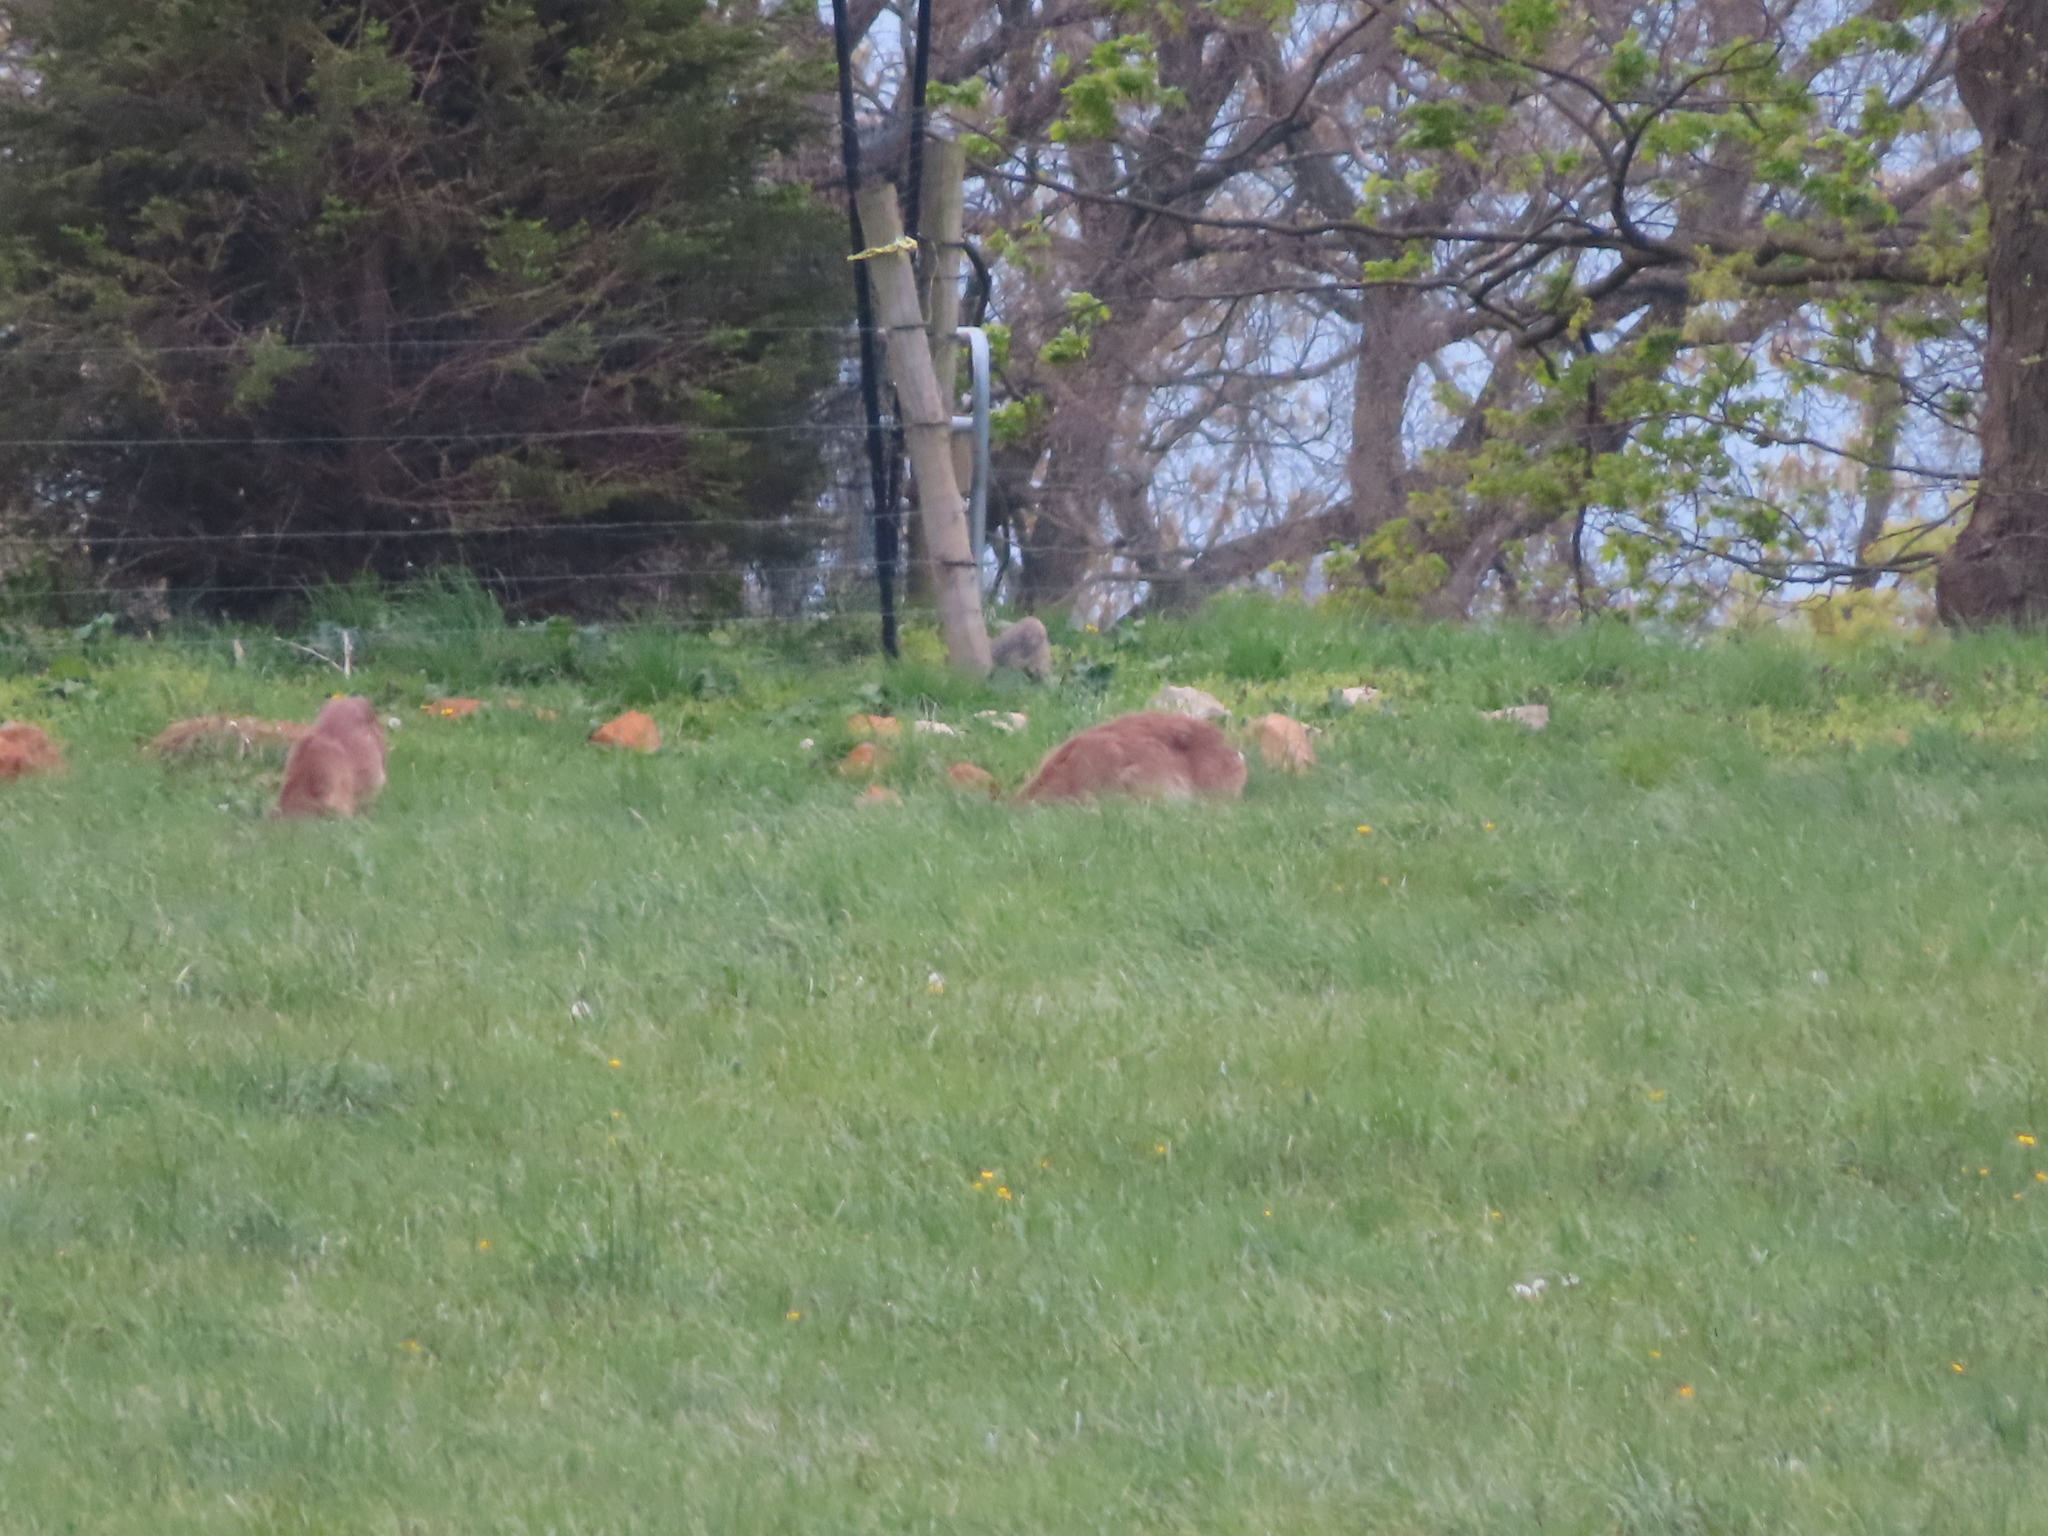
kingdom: Animalia
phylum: Chordata
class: Mammalia
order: Artiodactyla
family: Cervidae
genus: Odocoileus
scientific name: Odocoileus virginianus
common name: White-tailed deer
